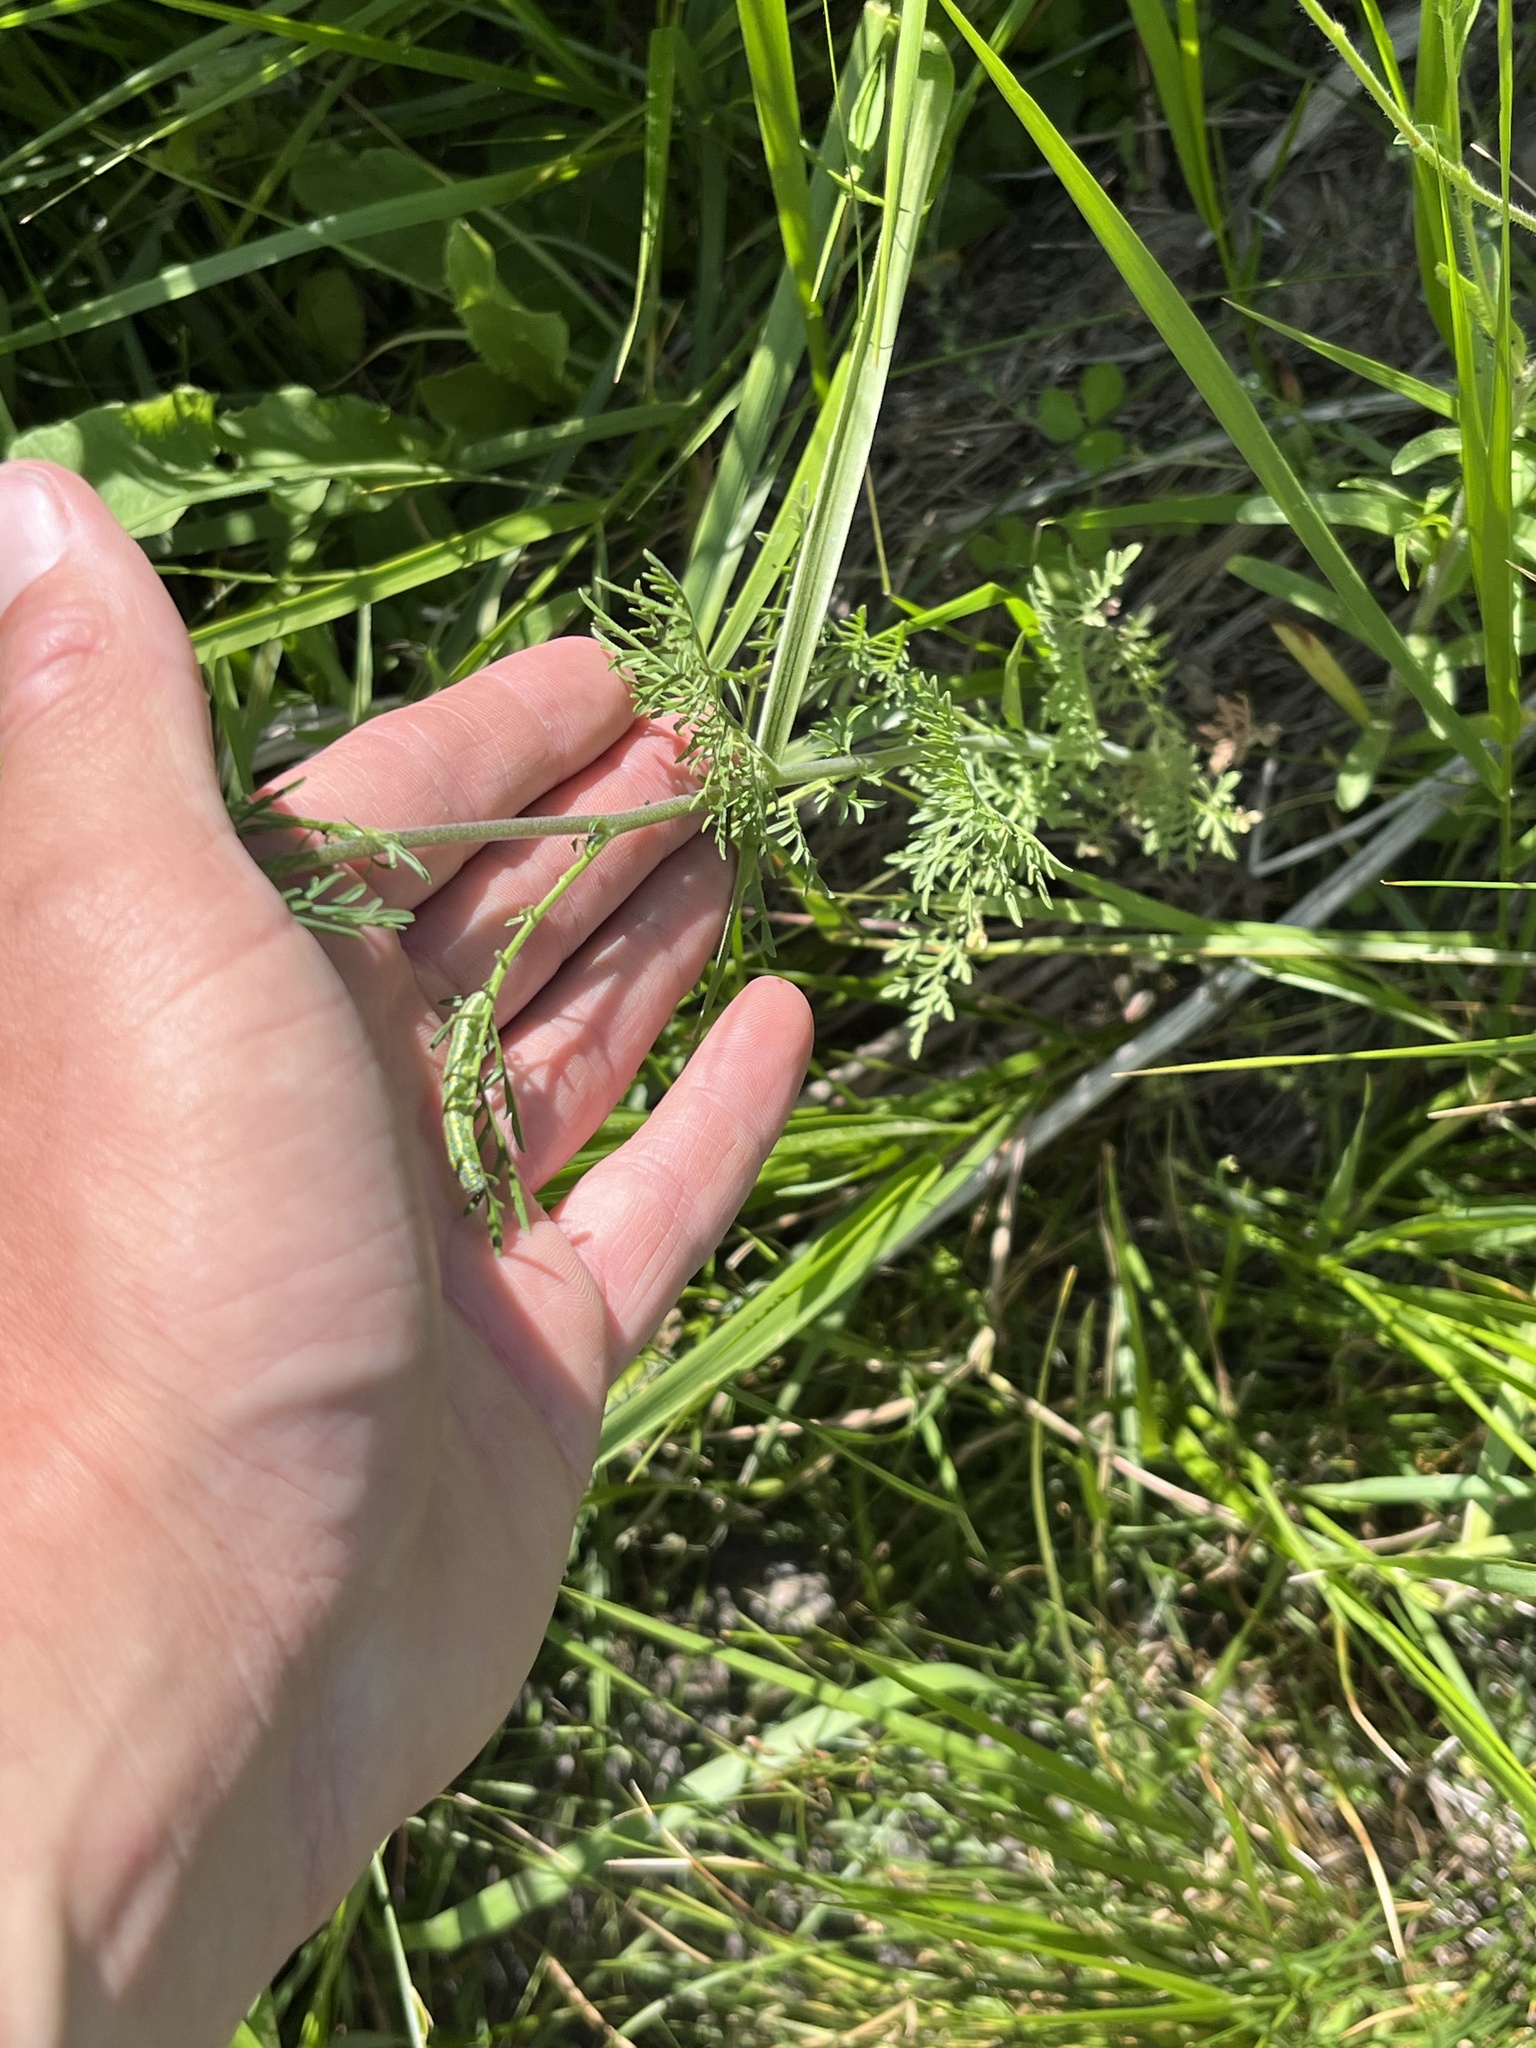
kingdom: Plantae
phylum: Tracheophyta
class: Magnoliopsida
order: Brassicales
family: Brassicaceae
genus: Descurainia
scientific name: Descurainia sophia
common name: Flixweed
